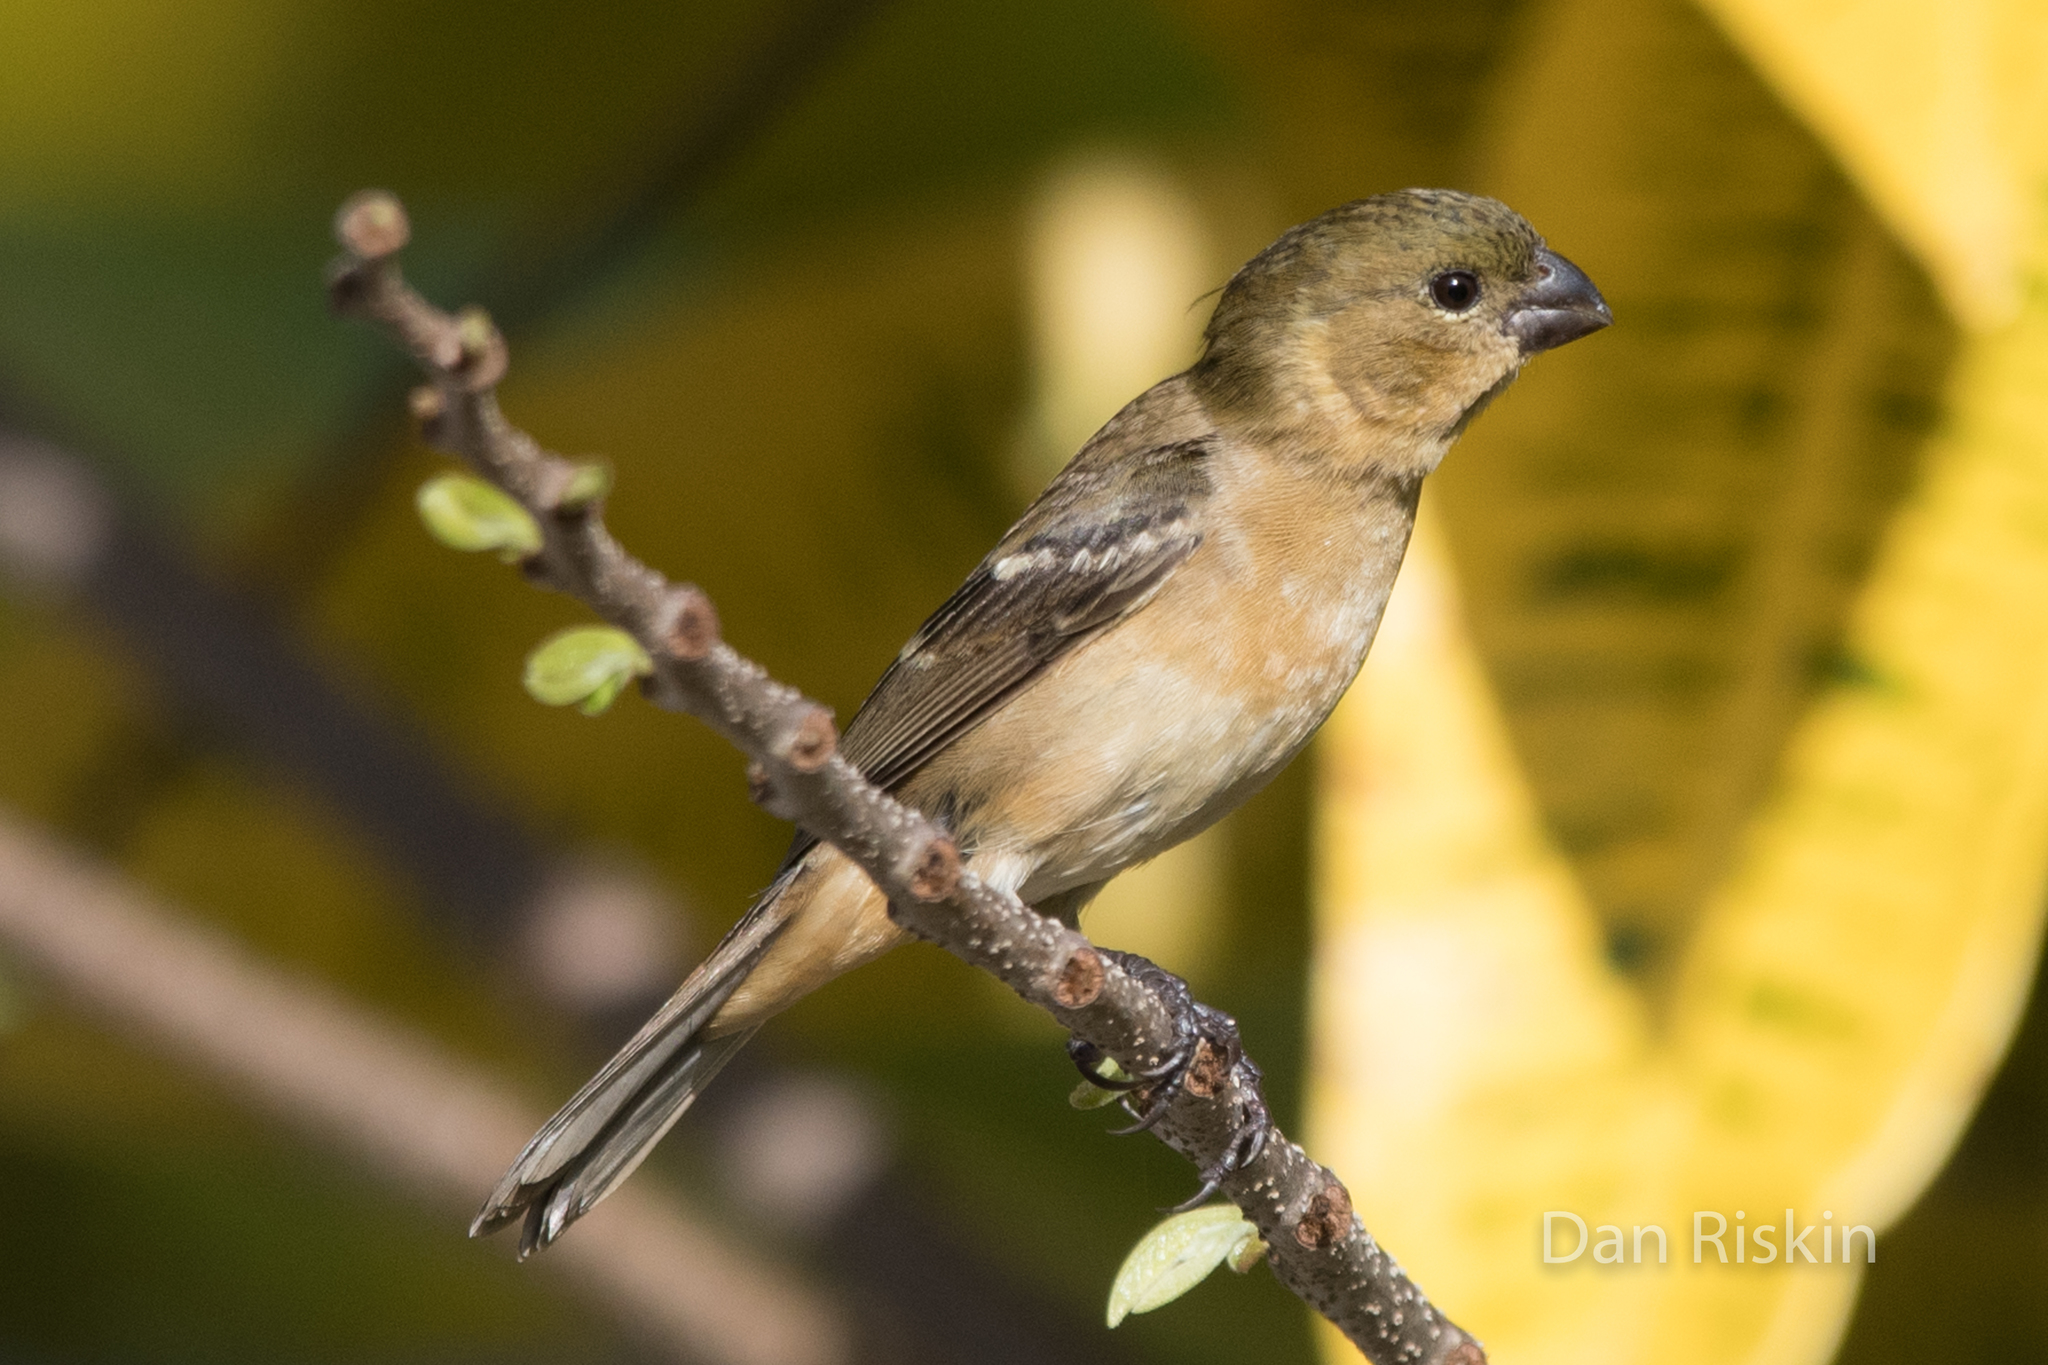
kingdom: Animalia
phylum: Chordata
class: Aves
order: Passeriformes
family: Thraupidae
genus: Sporophila
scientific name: Sporophila morelleti
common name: Morelet's seedeater
